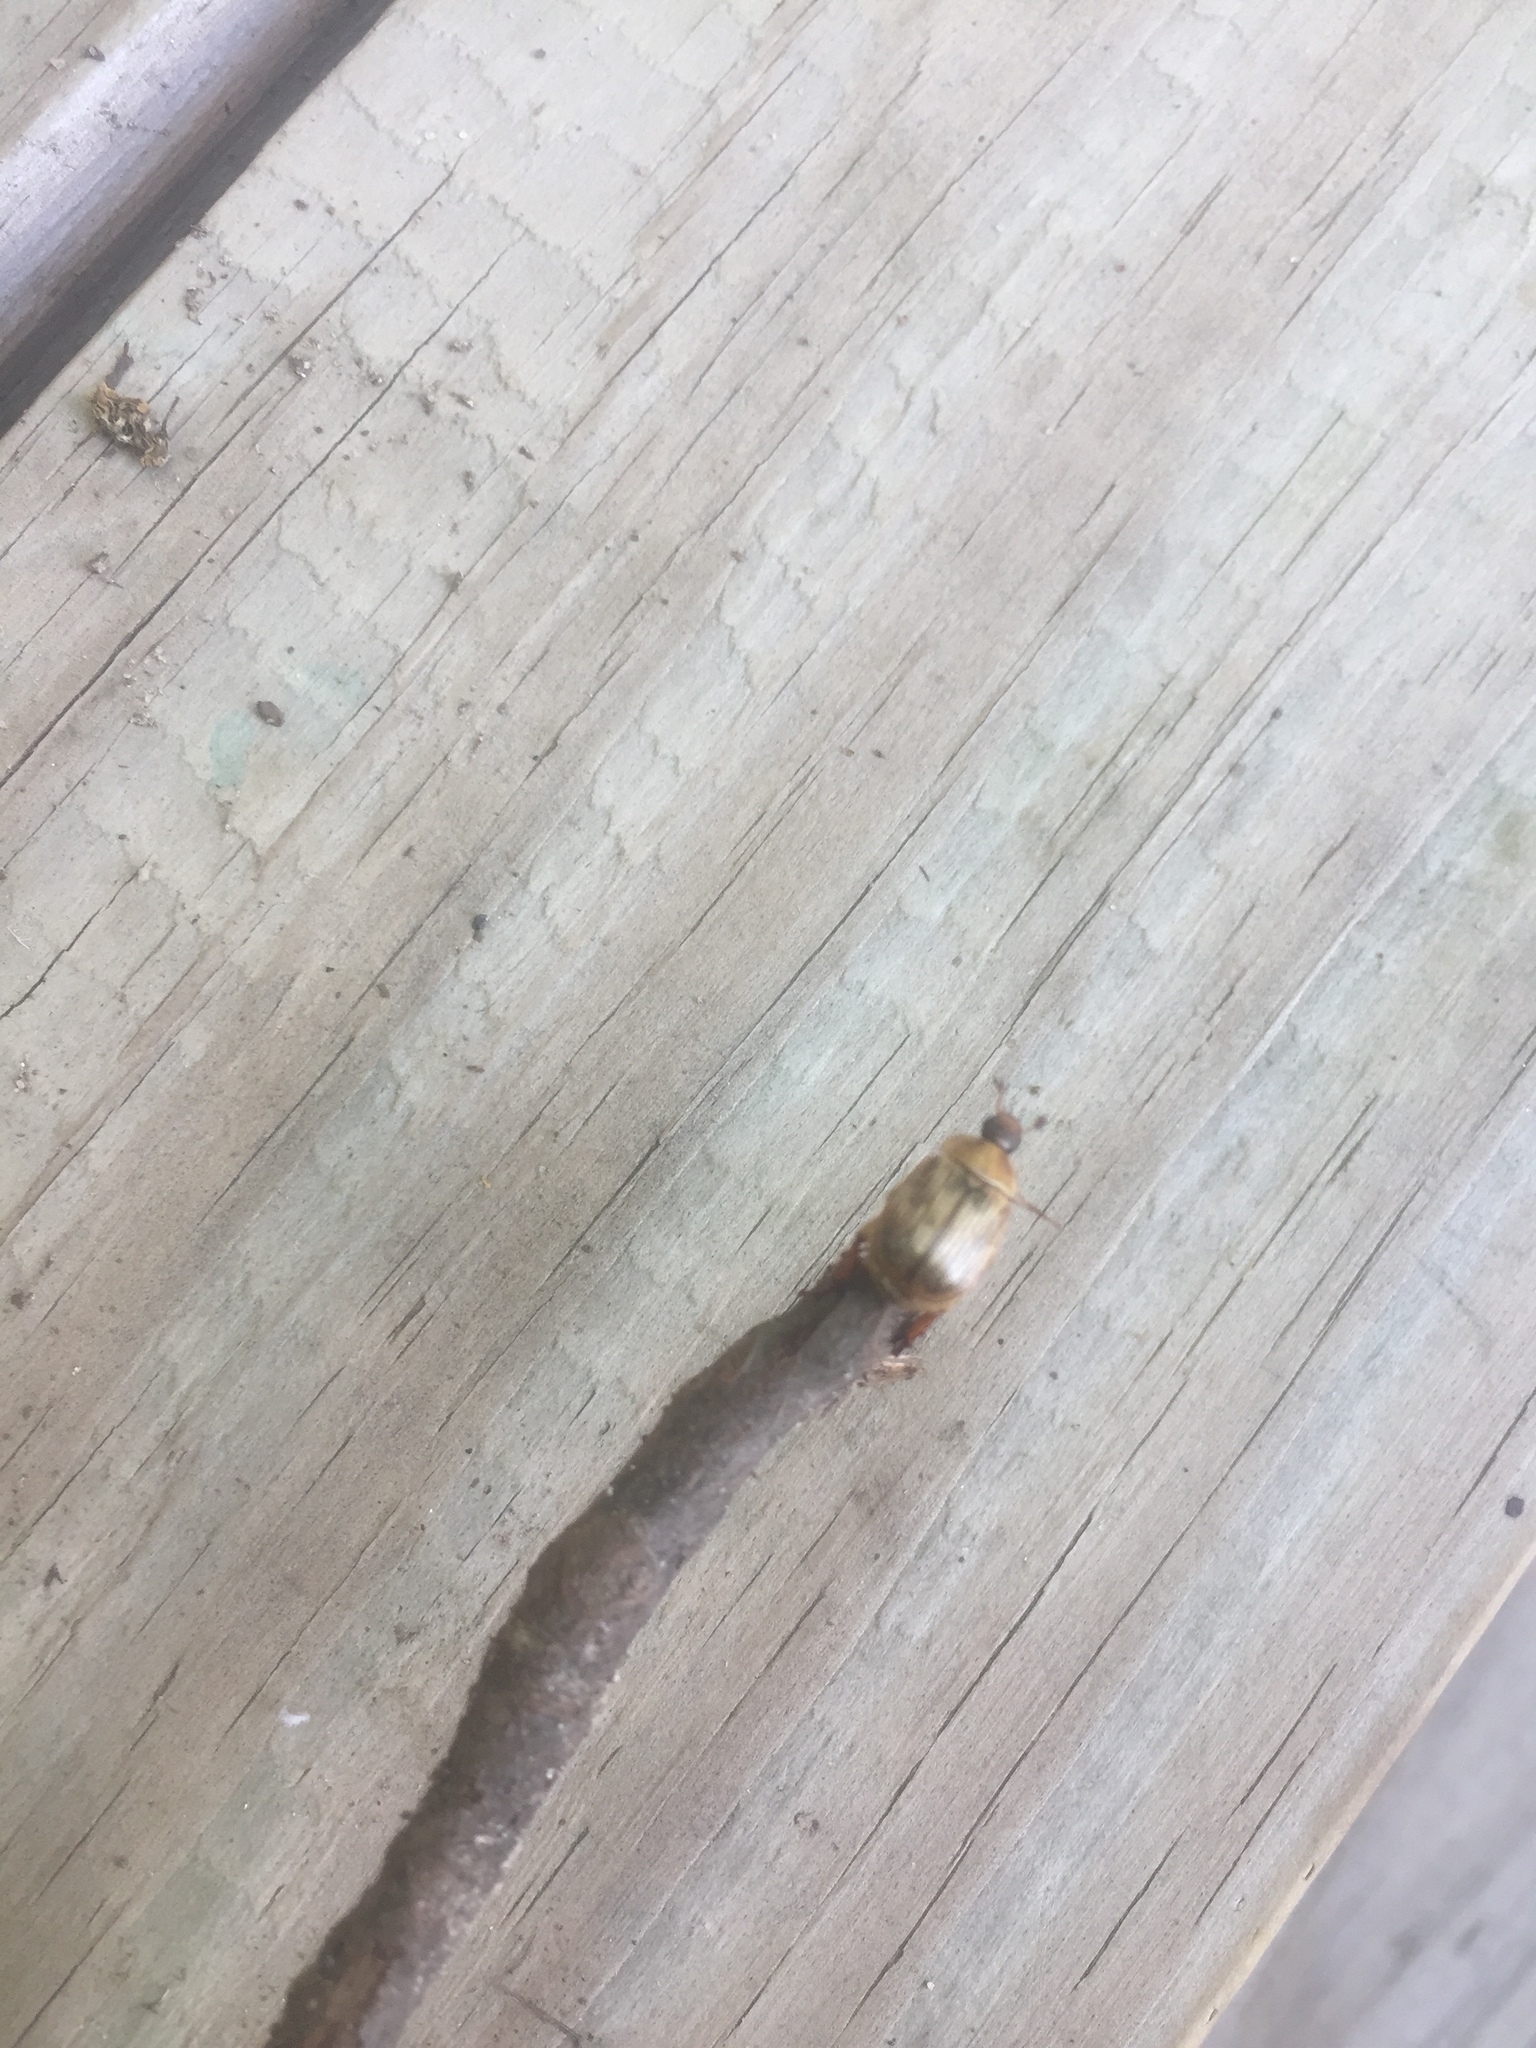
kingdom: Animalia
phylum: Arthropoda
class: Insecta
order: Coleoptera
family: Scarabaeidae
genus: Exomala
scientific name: Exomala orientalis
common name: Oriental beetle
